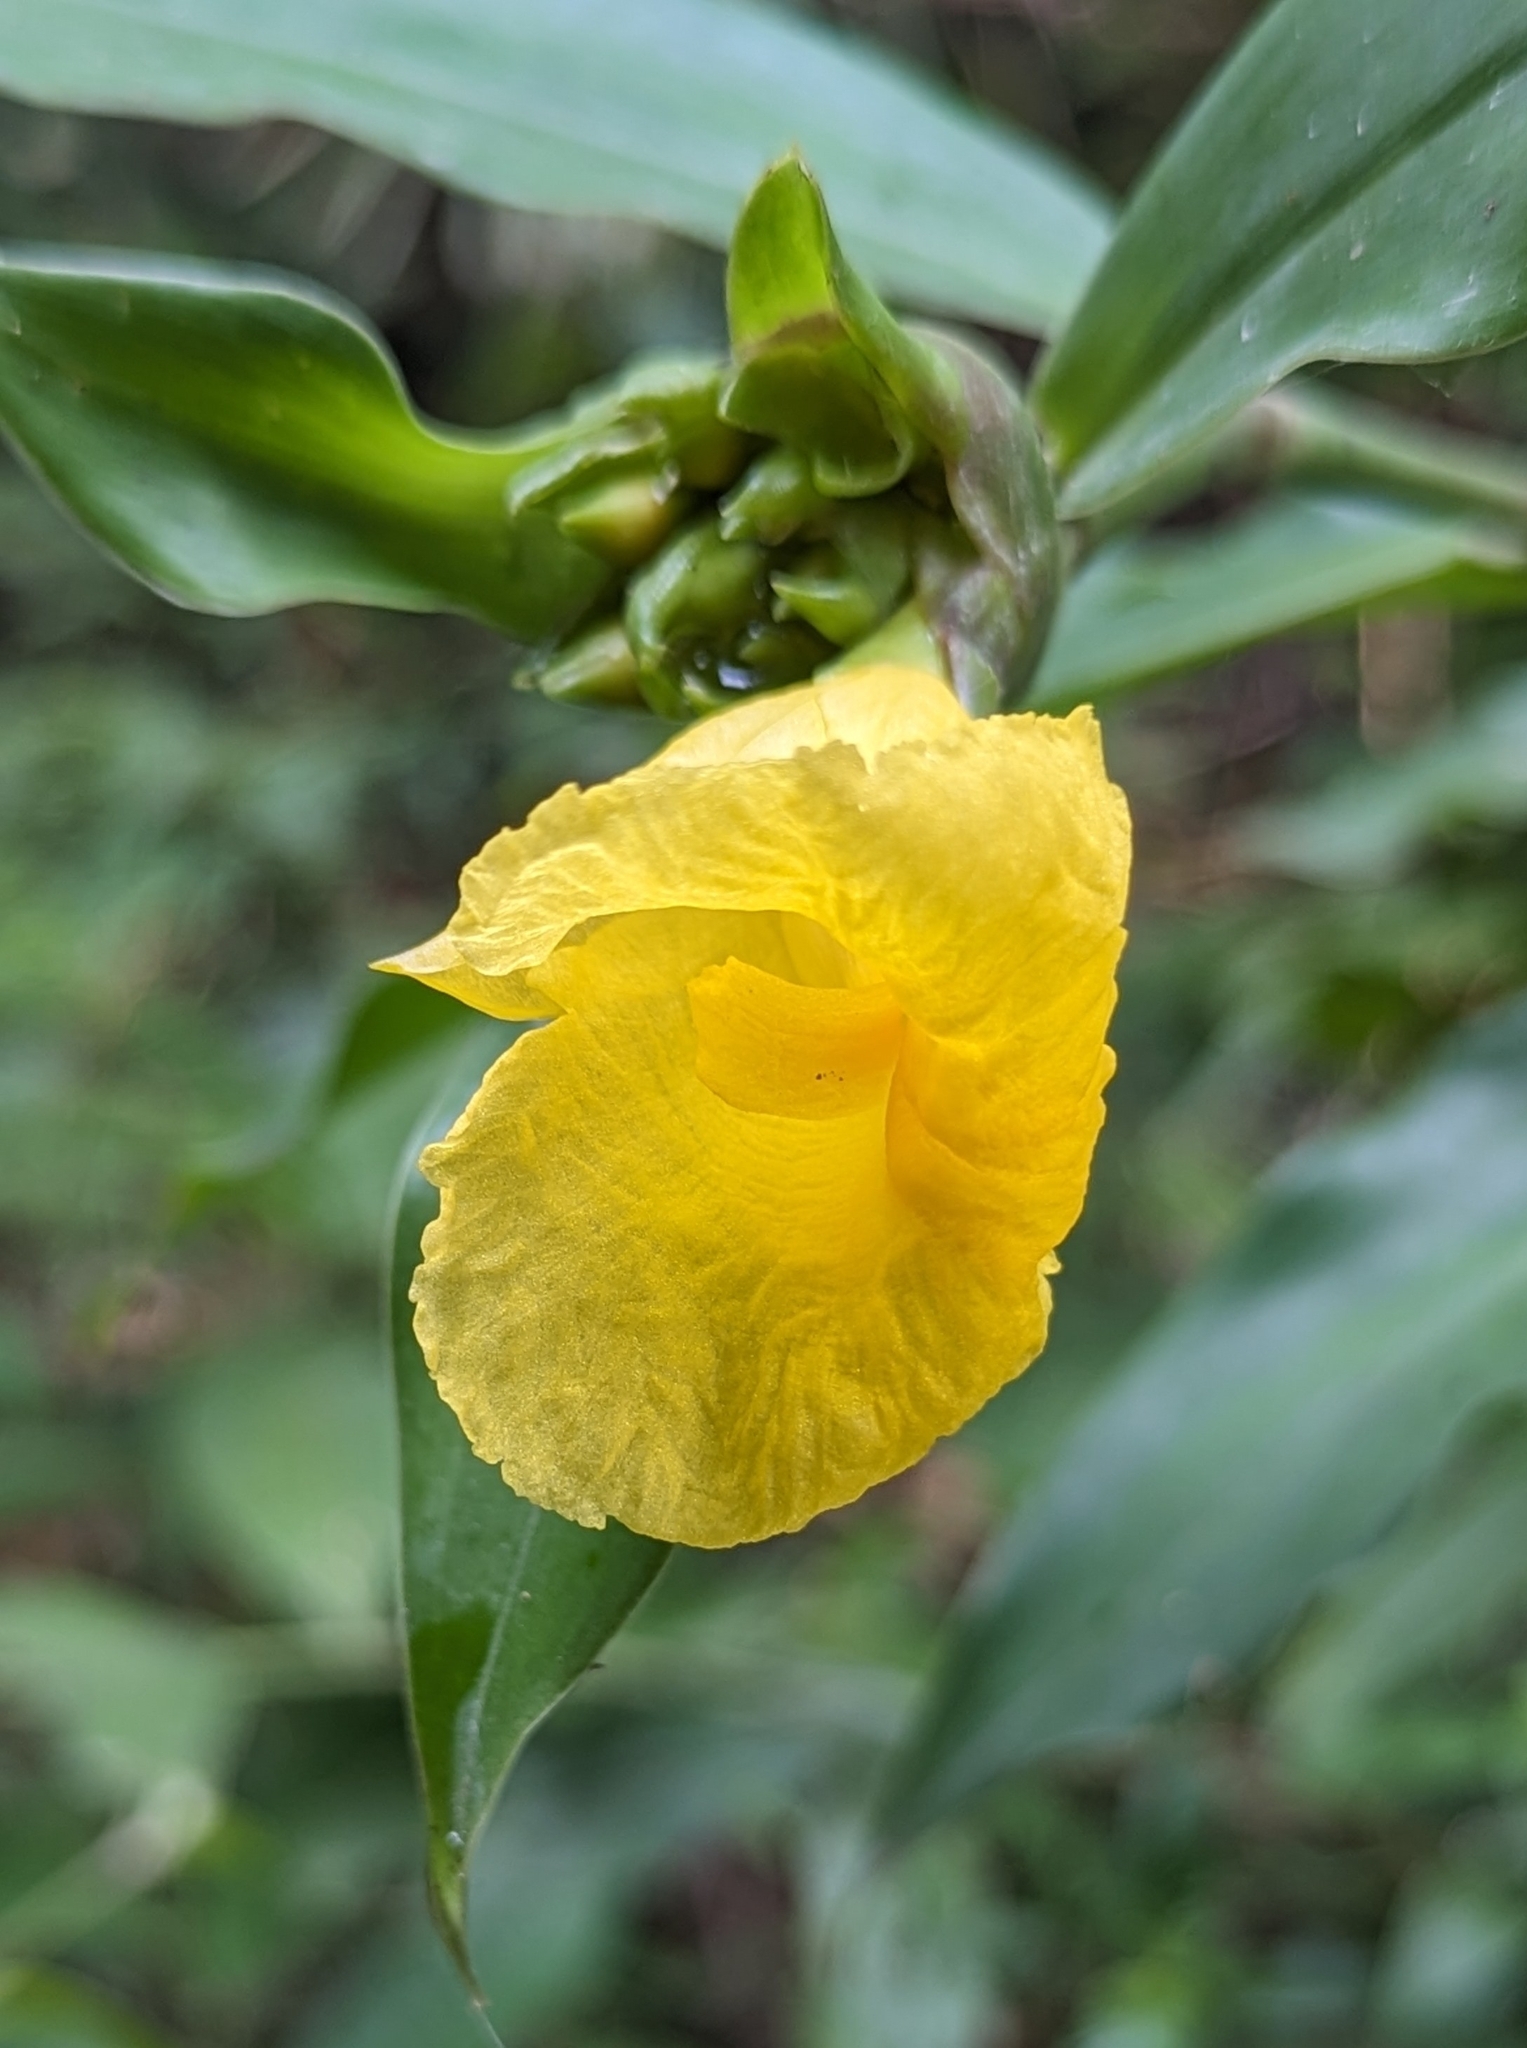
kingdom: Plantae
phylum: Tracheophyta
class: Liliopsida
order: Zingiberales
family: Costaceae
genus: Costus
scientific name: Costus aureus
